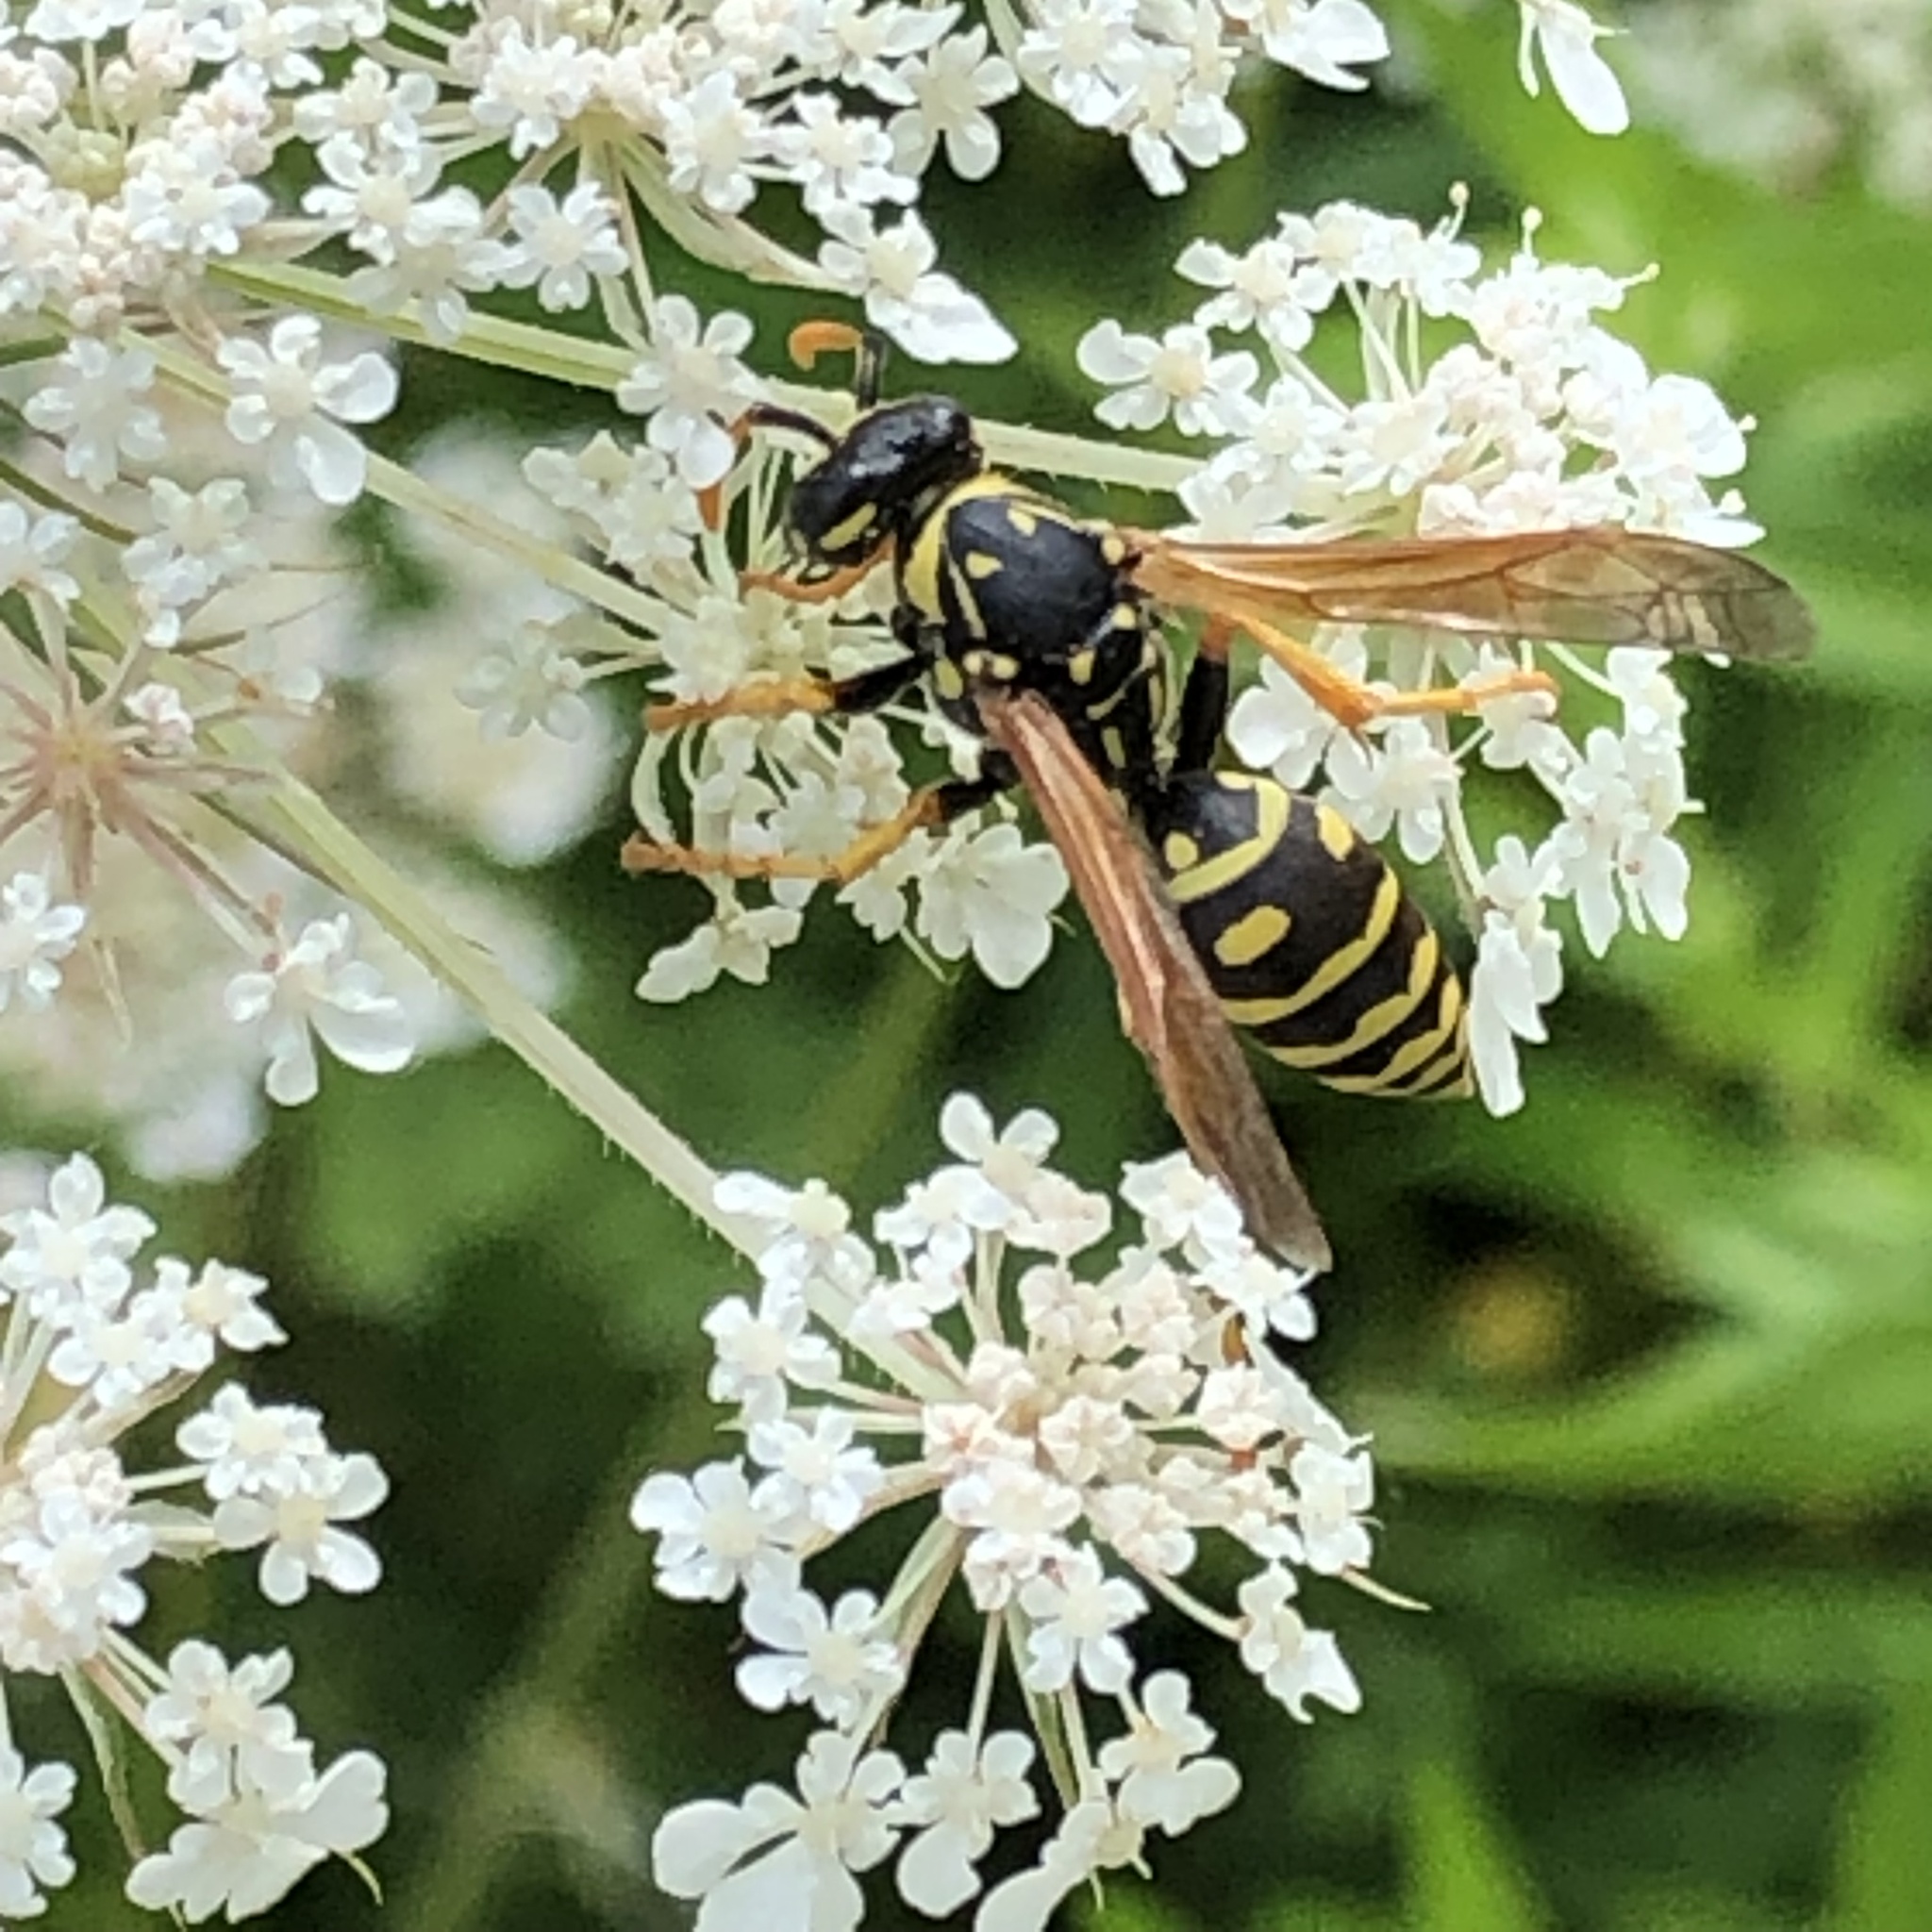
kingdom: Animalia
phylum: Arthropoda
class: Insecta
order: Hymenoptera
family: Eumenidae
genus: Polistes
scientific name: Polistes dominula
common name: Paper wasp
